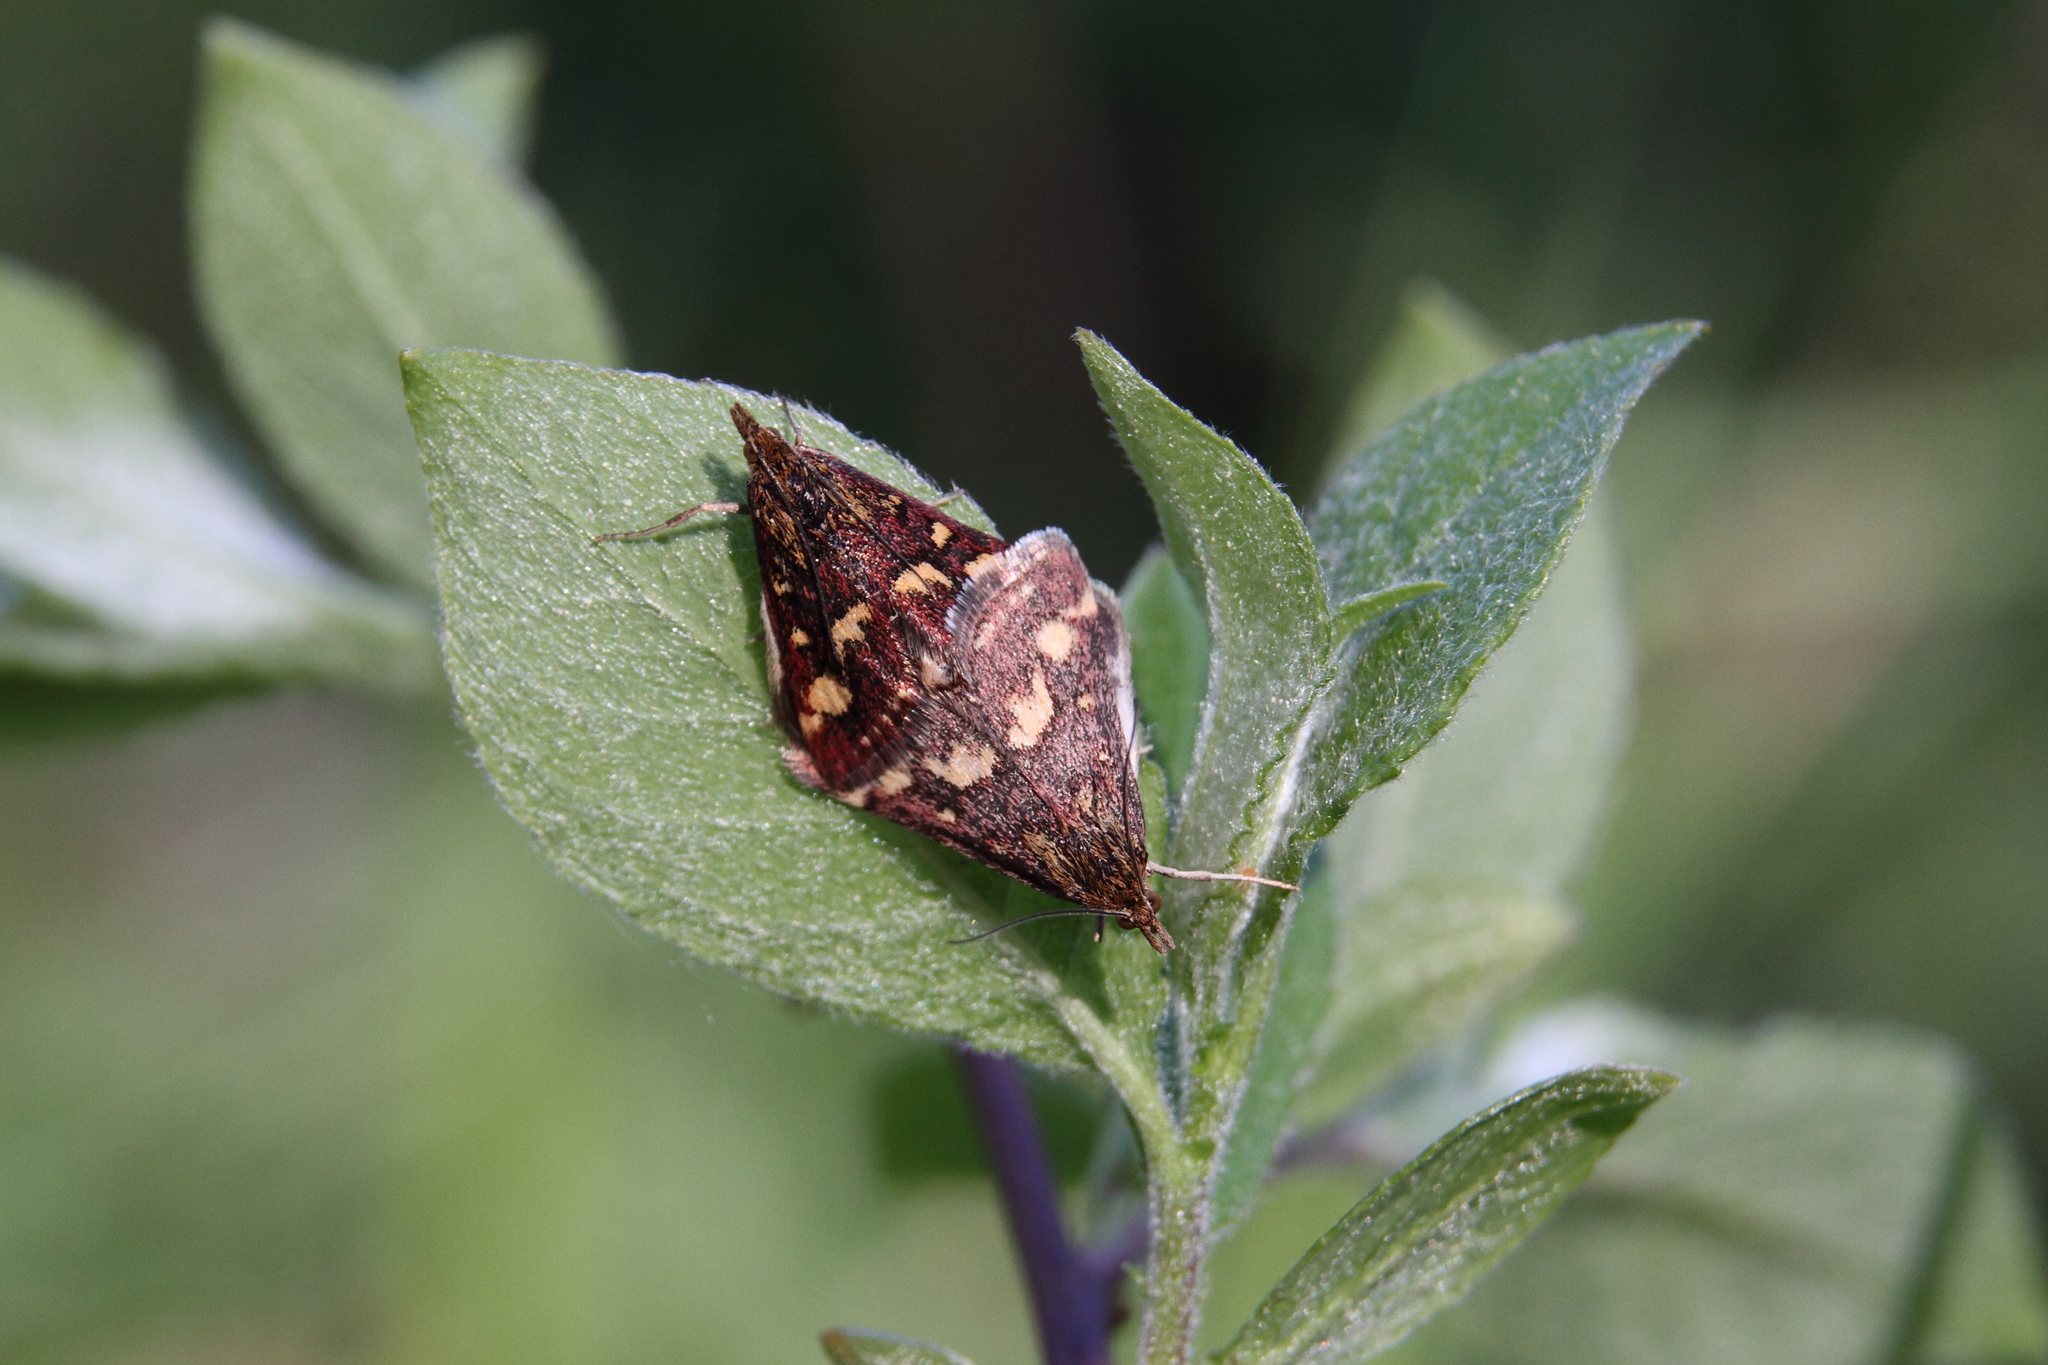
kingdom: Animalia
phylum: Arthropoda
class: Insecta
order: Lepidoptera
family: Crambidae
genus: Pyrausta
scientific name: Pyrausta purpuralis
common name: Common purple & gold
